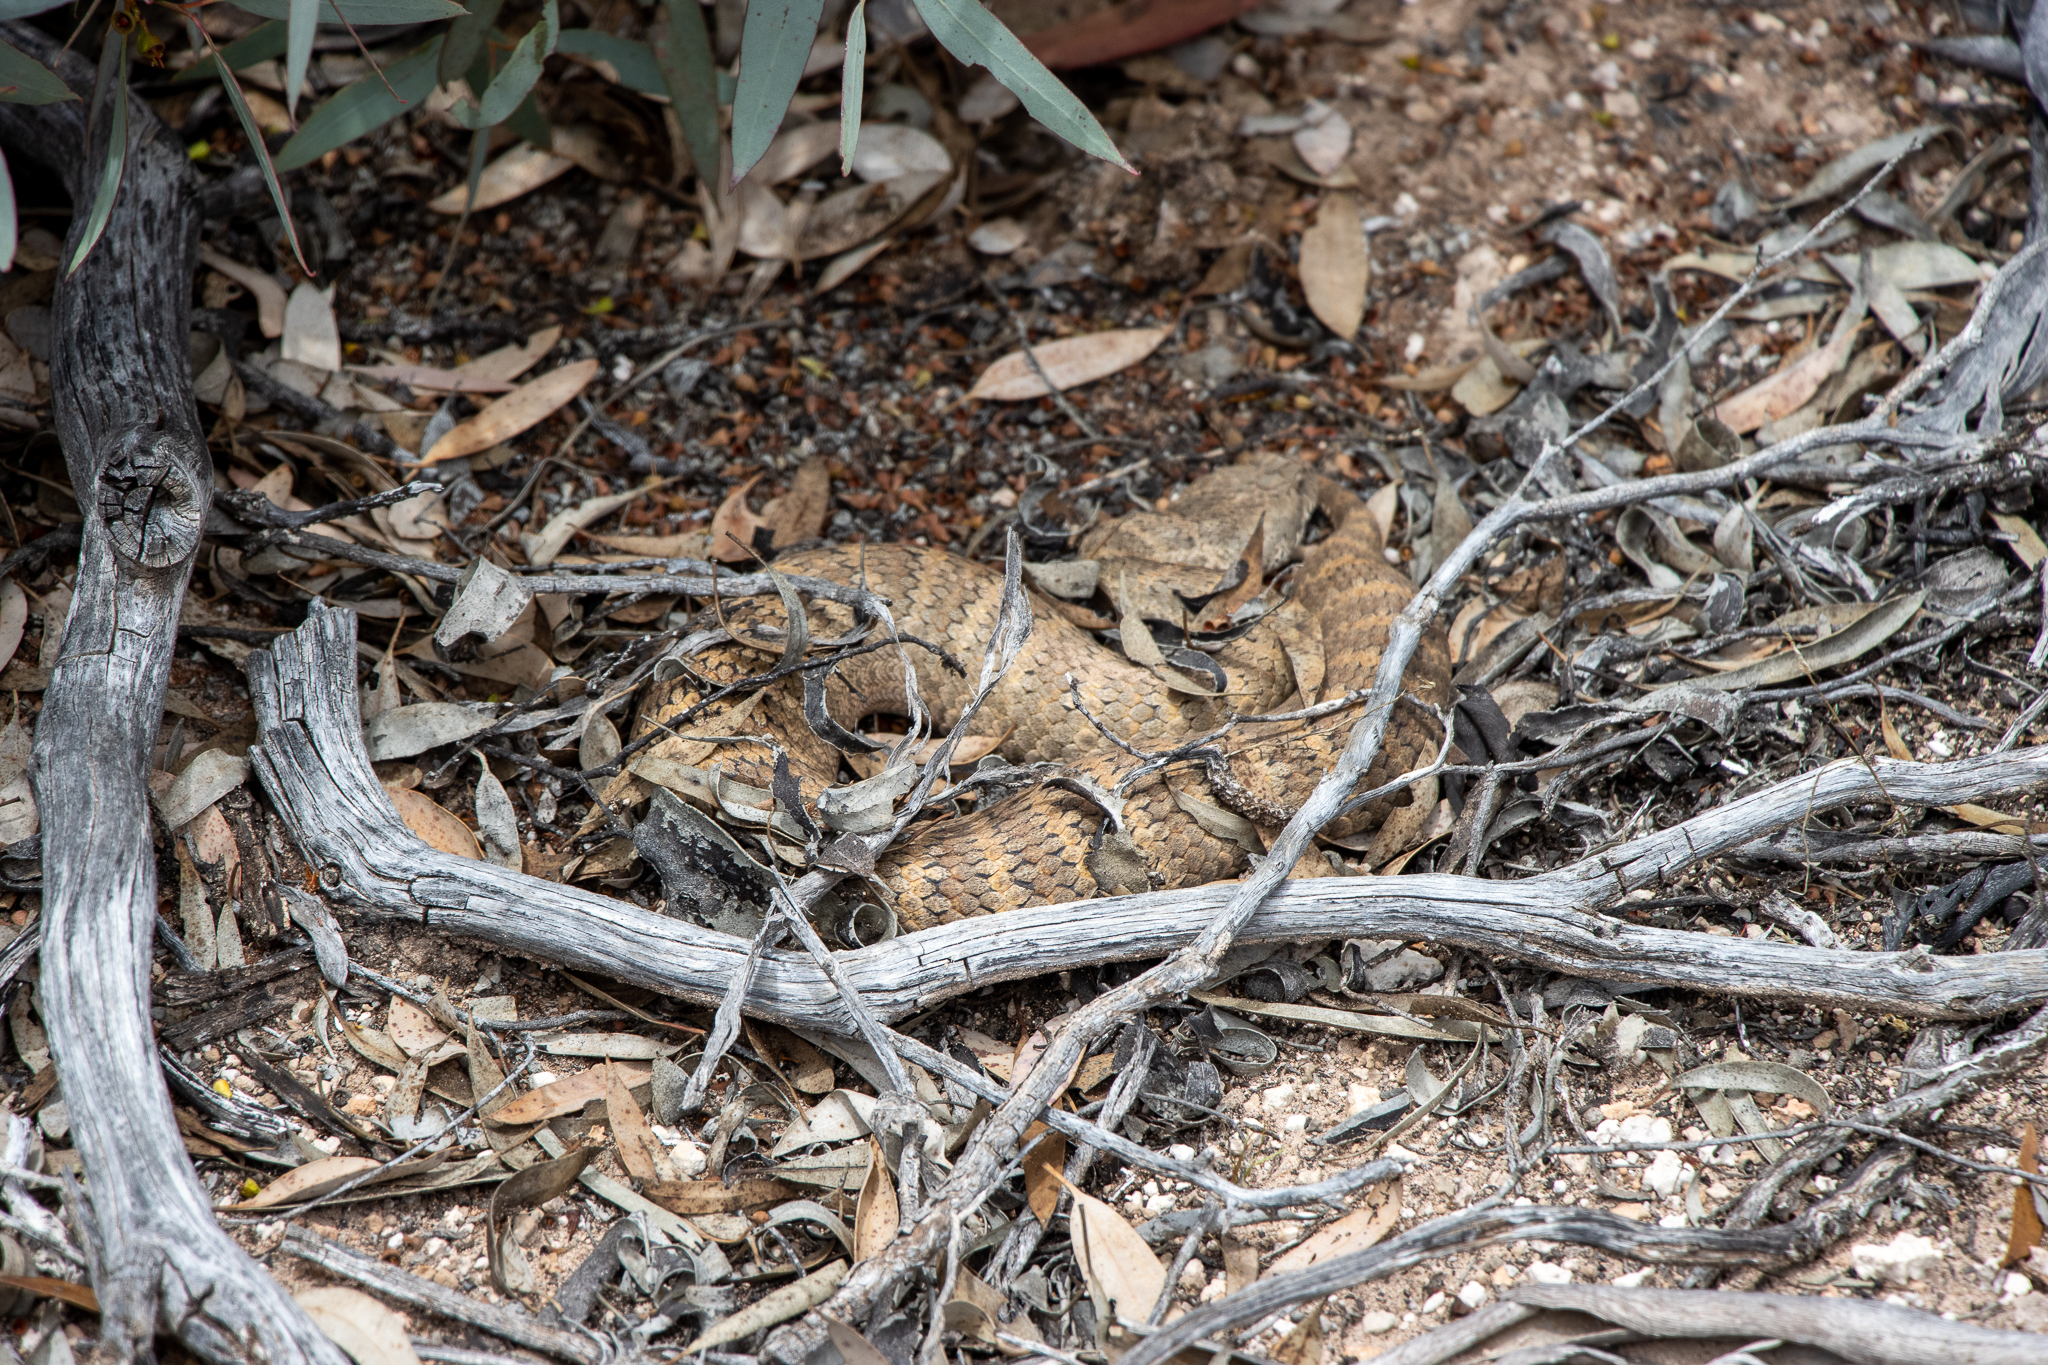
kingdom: Animalia
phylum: Chordata
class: Squamata
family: Elapidae
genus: Acanthophis
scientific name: Acanthophis antarcticus
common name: Common death adder
